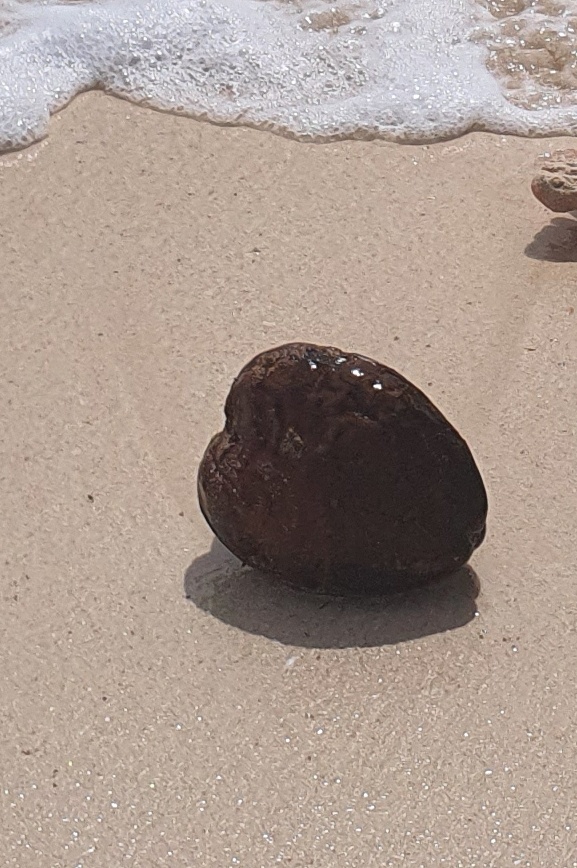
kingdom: Plantae
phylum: Tracheophyta
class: Liliopsida
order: Arecales
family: Arecaceae
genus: Cocos
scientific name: Cocos nucifera
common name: Coconut palm
